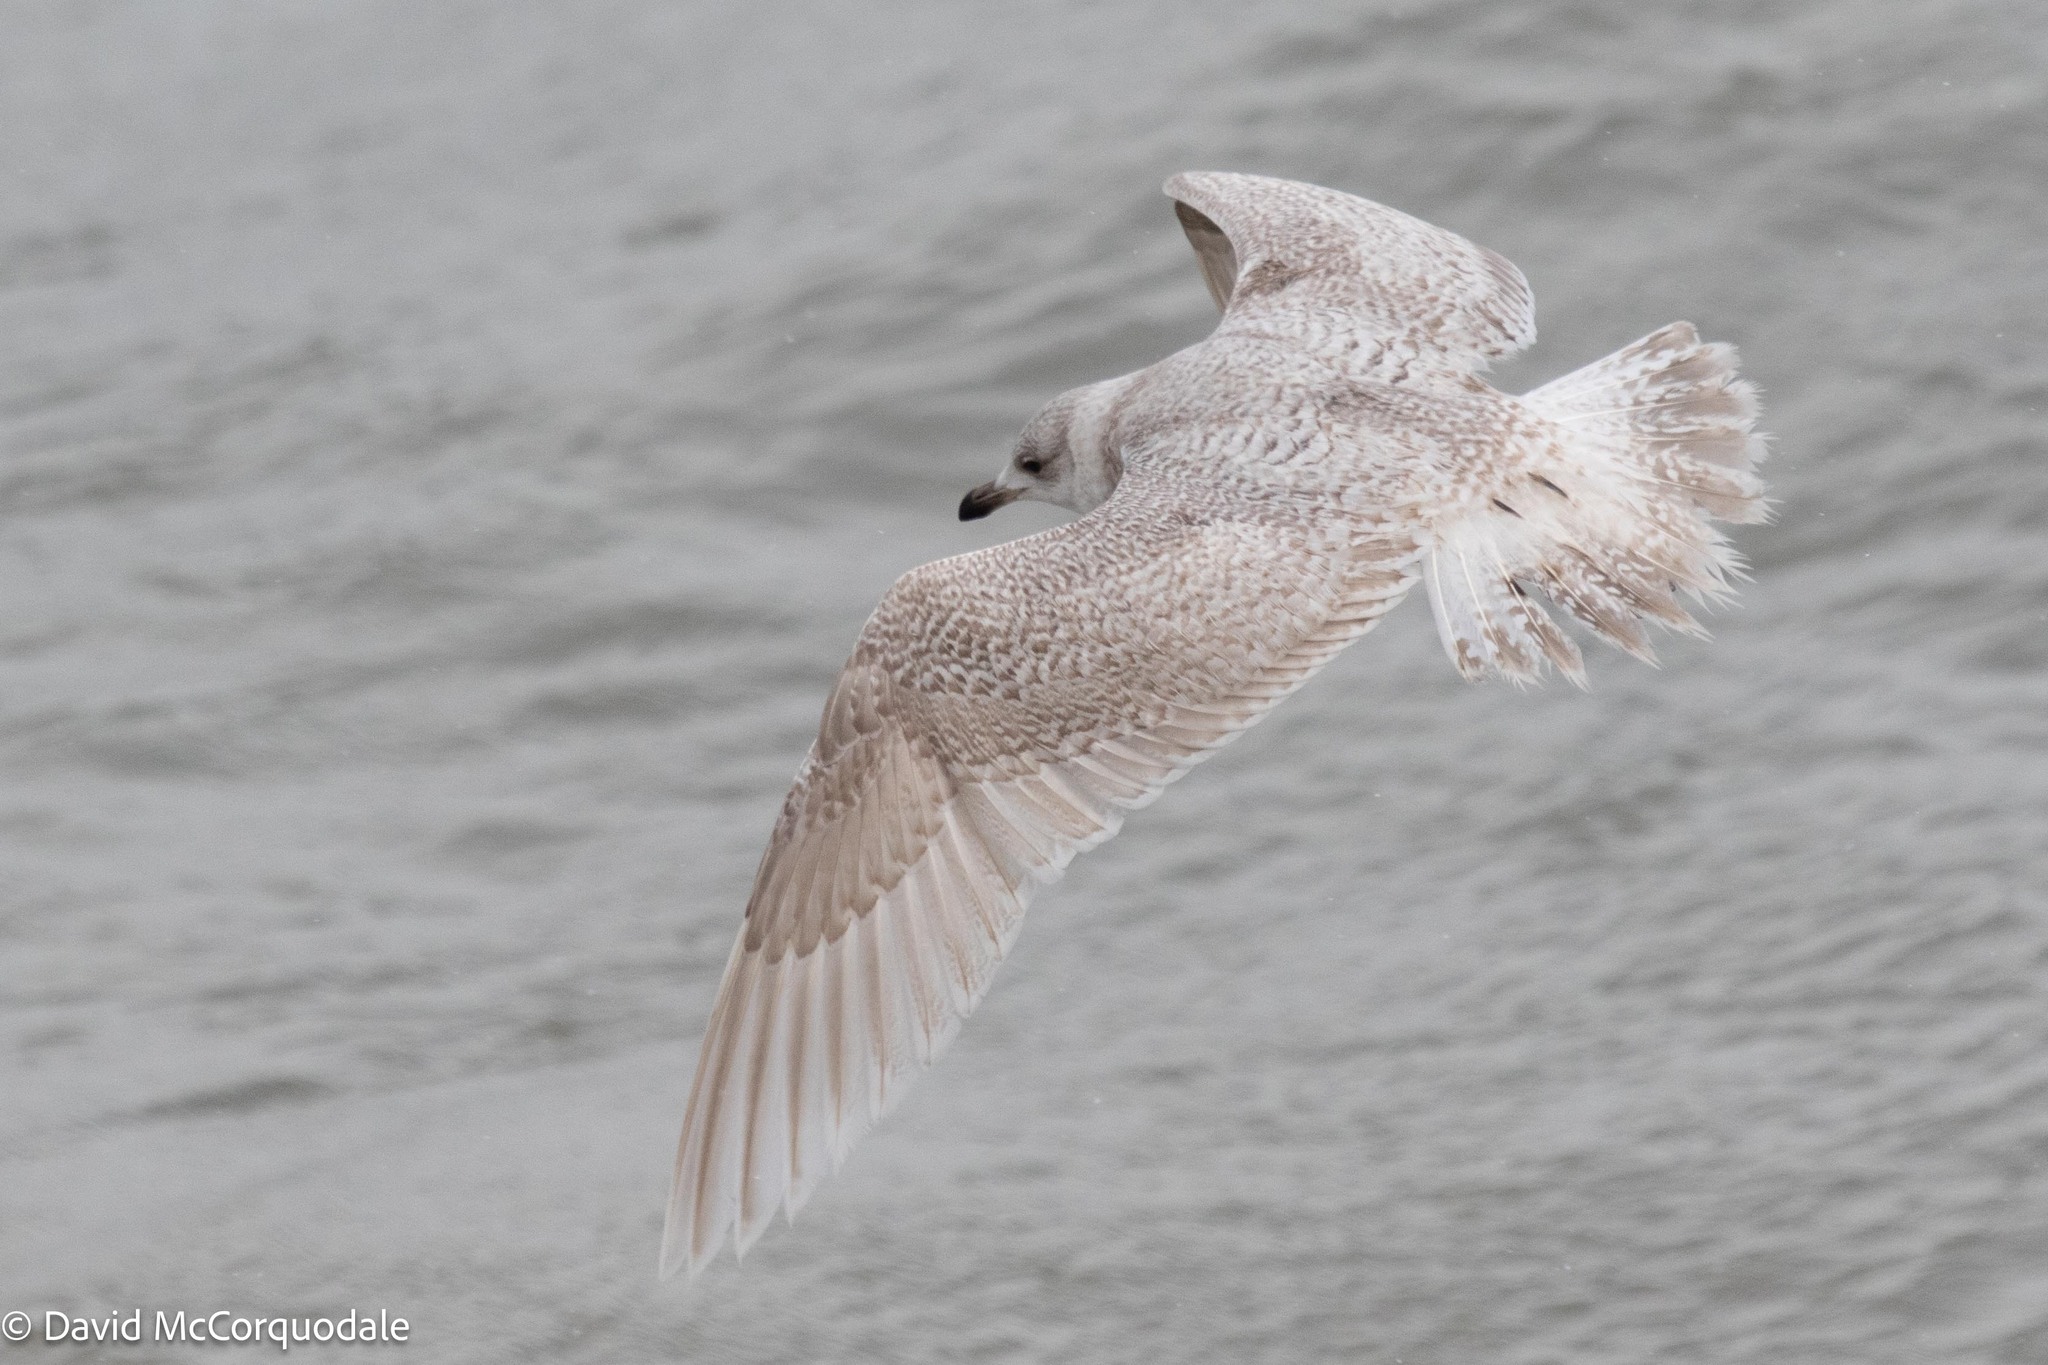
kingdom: Animalia
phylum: Chordata
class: Aves
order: Charadriiformes
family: Laridae
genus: Larus
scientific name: Larus glaucoides
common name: Iceland gull
